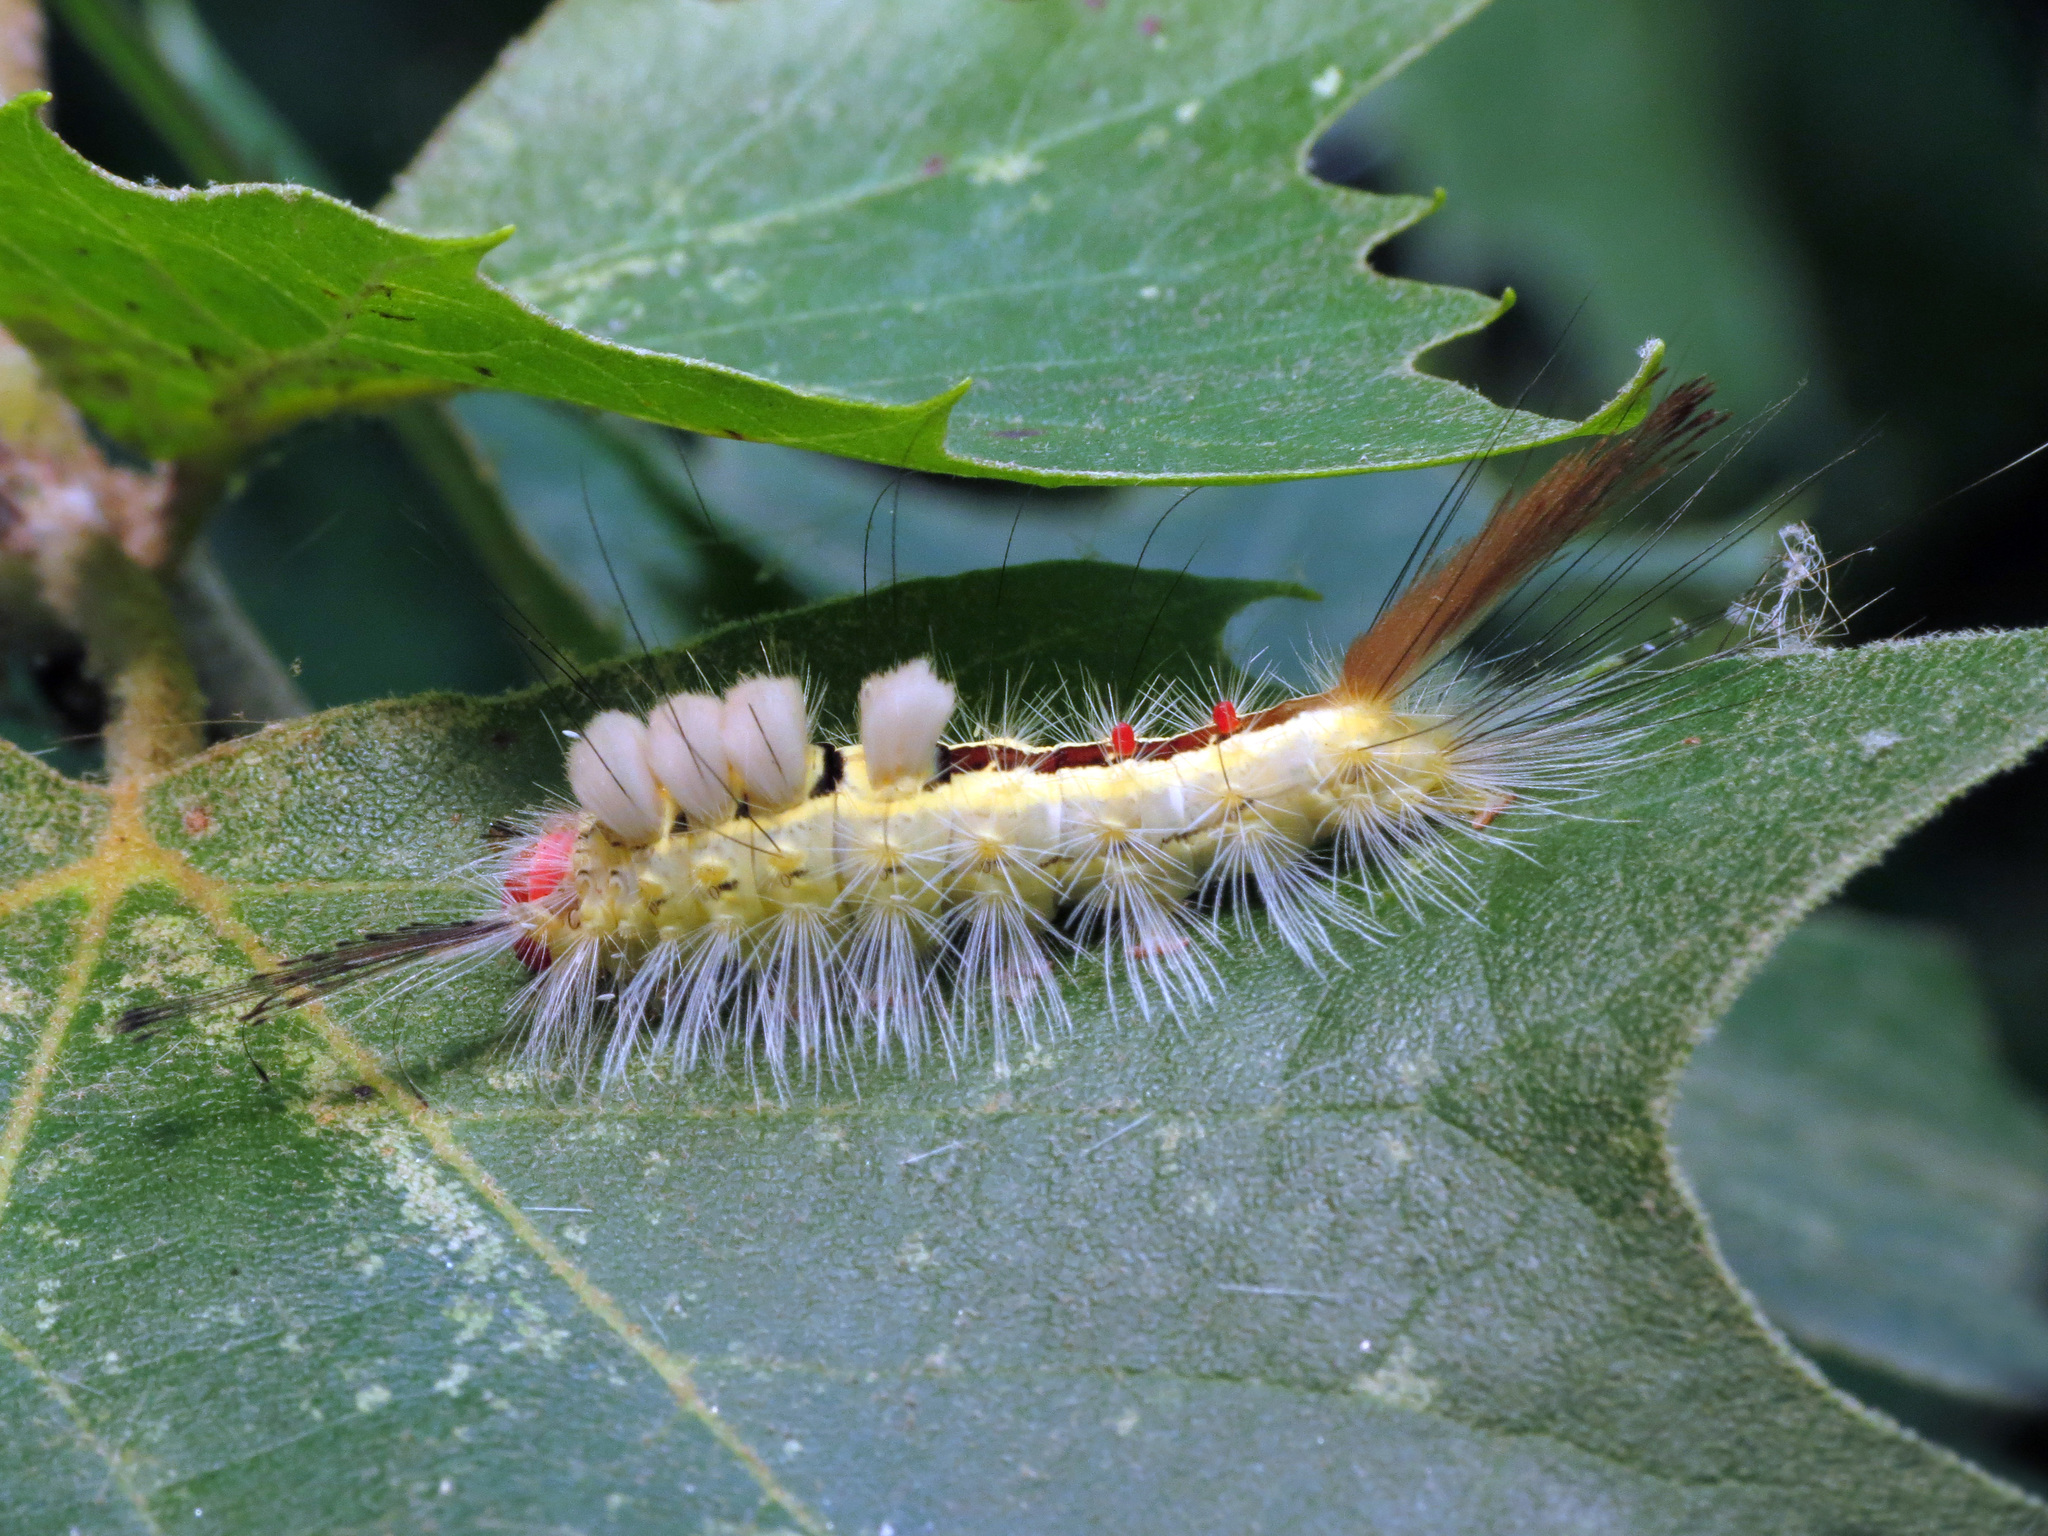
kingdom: Animalia
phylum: Arthropoda
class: Insecta
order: Lepidoptera
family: Erebidae
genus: Orgyia
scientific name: Orgyia leucostigma
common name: White-marked tussock moth
